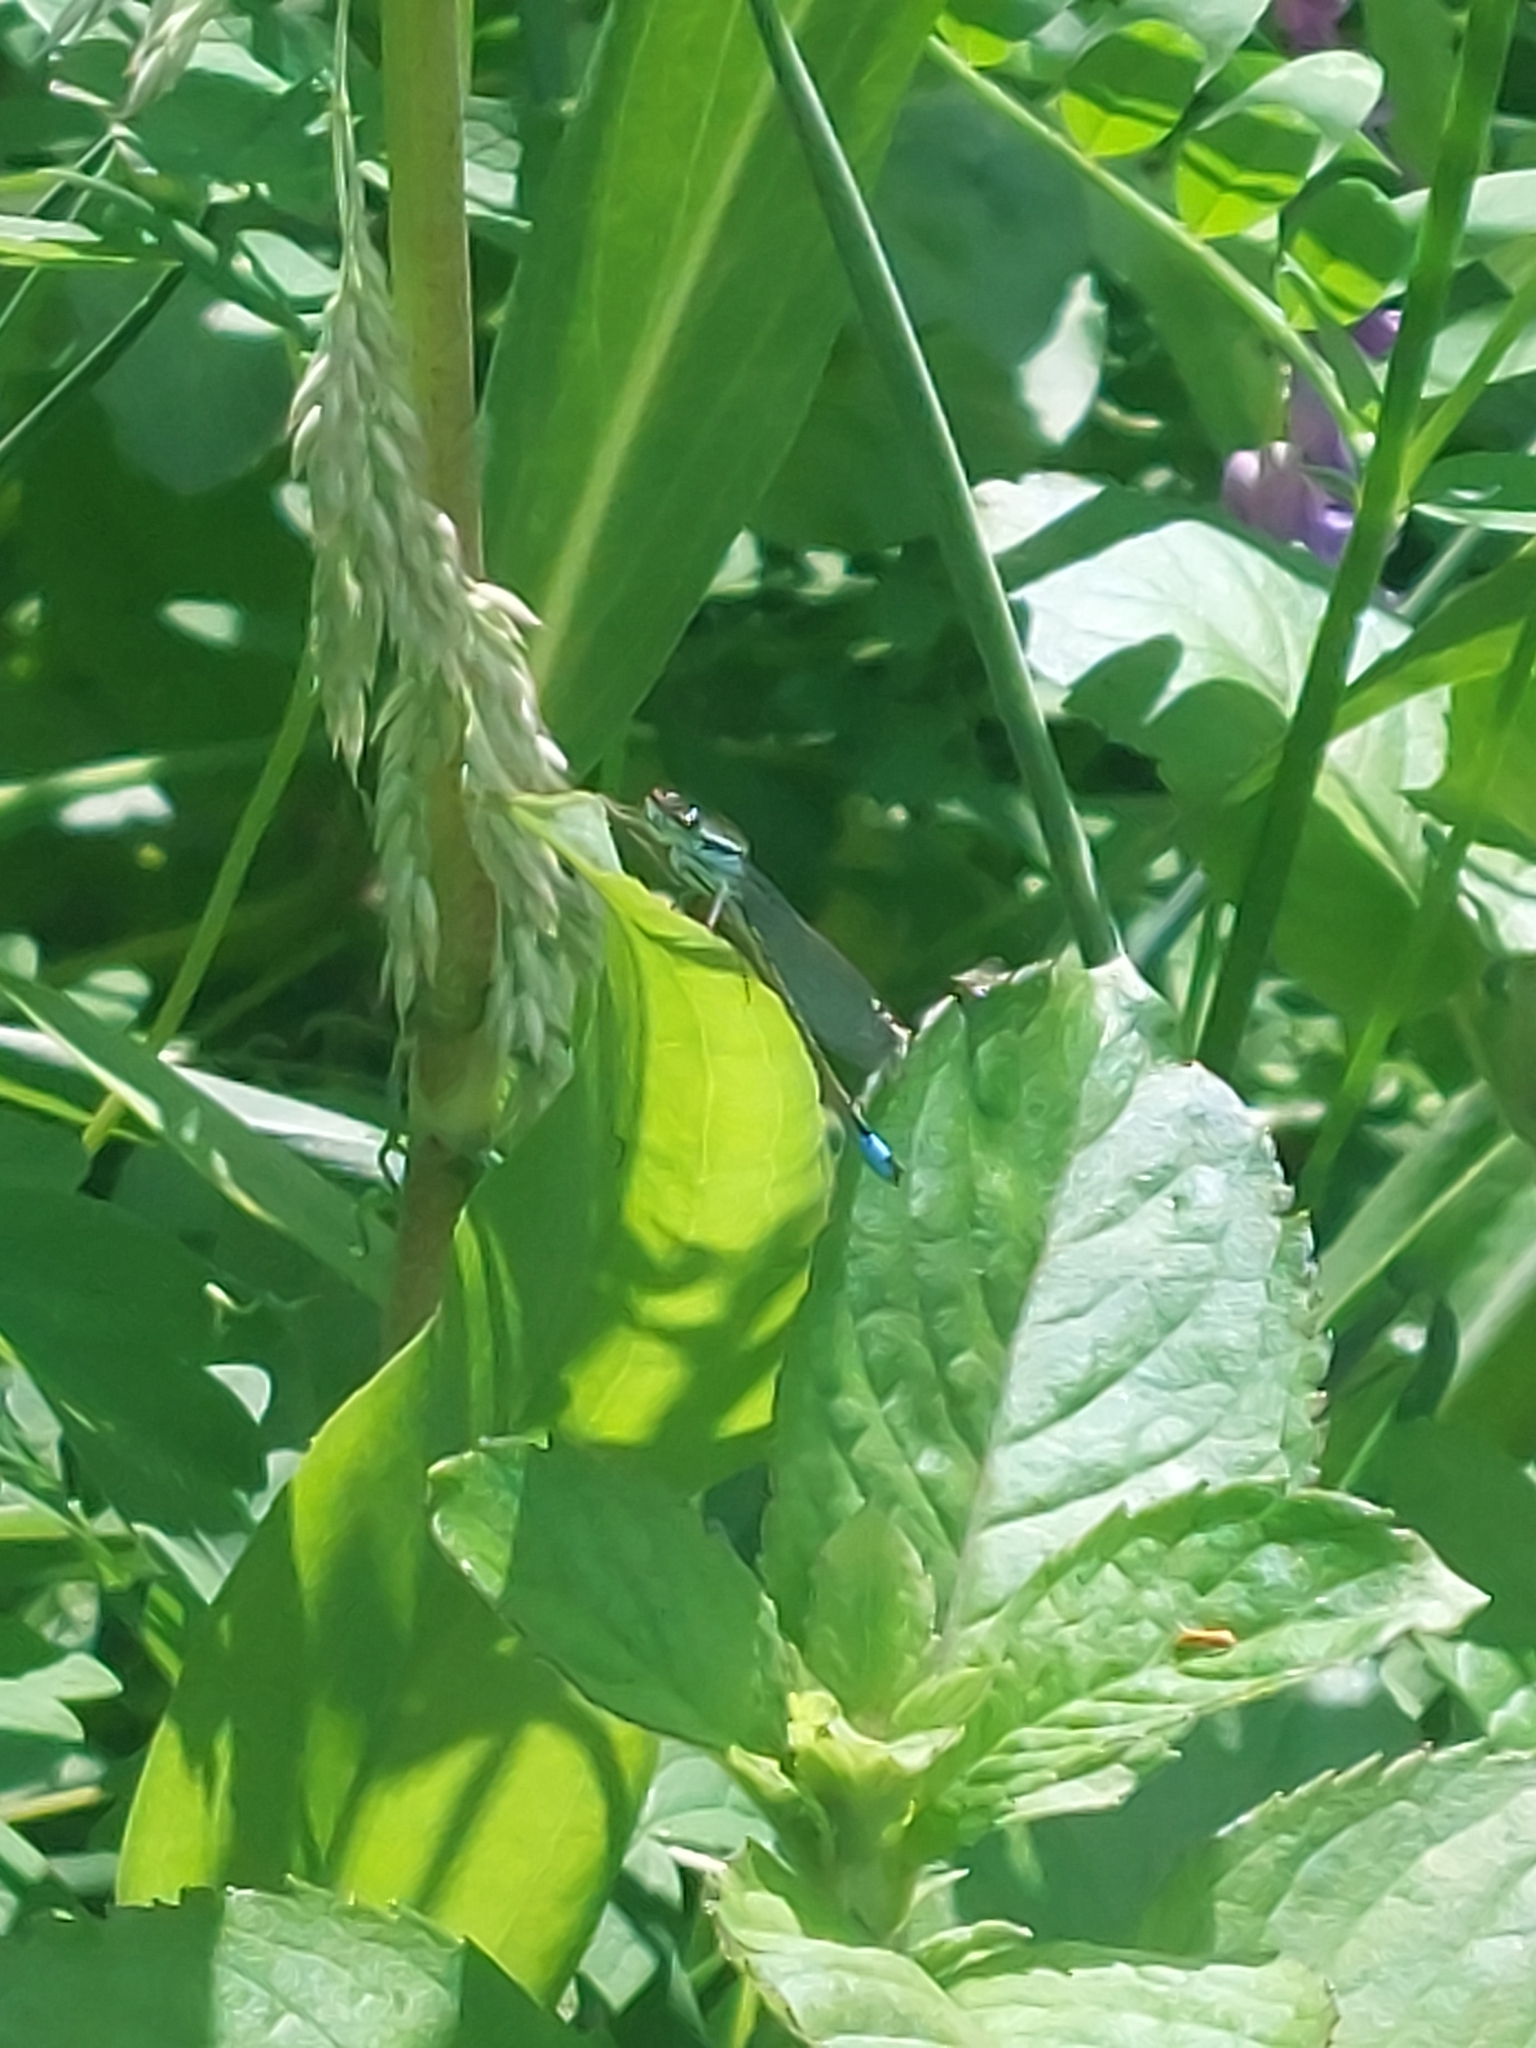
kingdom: Animalia
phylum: Arthropoda
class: Insecta
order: Odonata
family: Coenagrionidae
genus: Ischnura
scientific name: Ischnura elegans
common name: Blue-tailed damselfly
